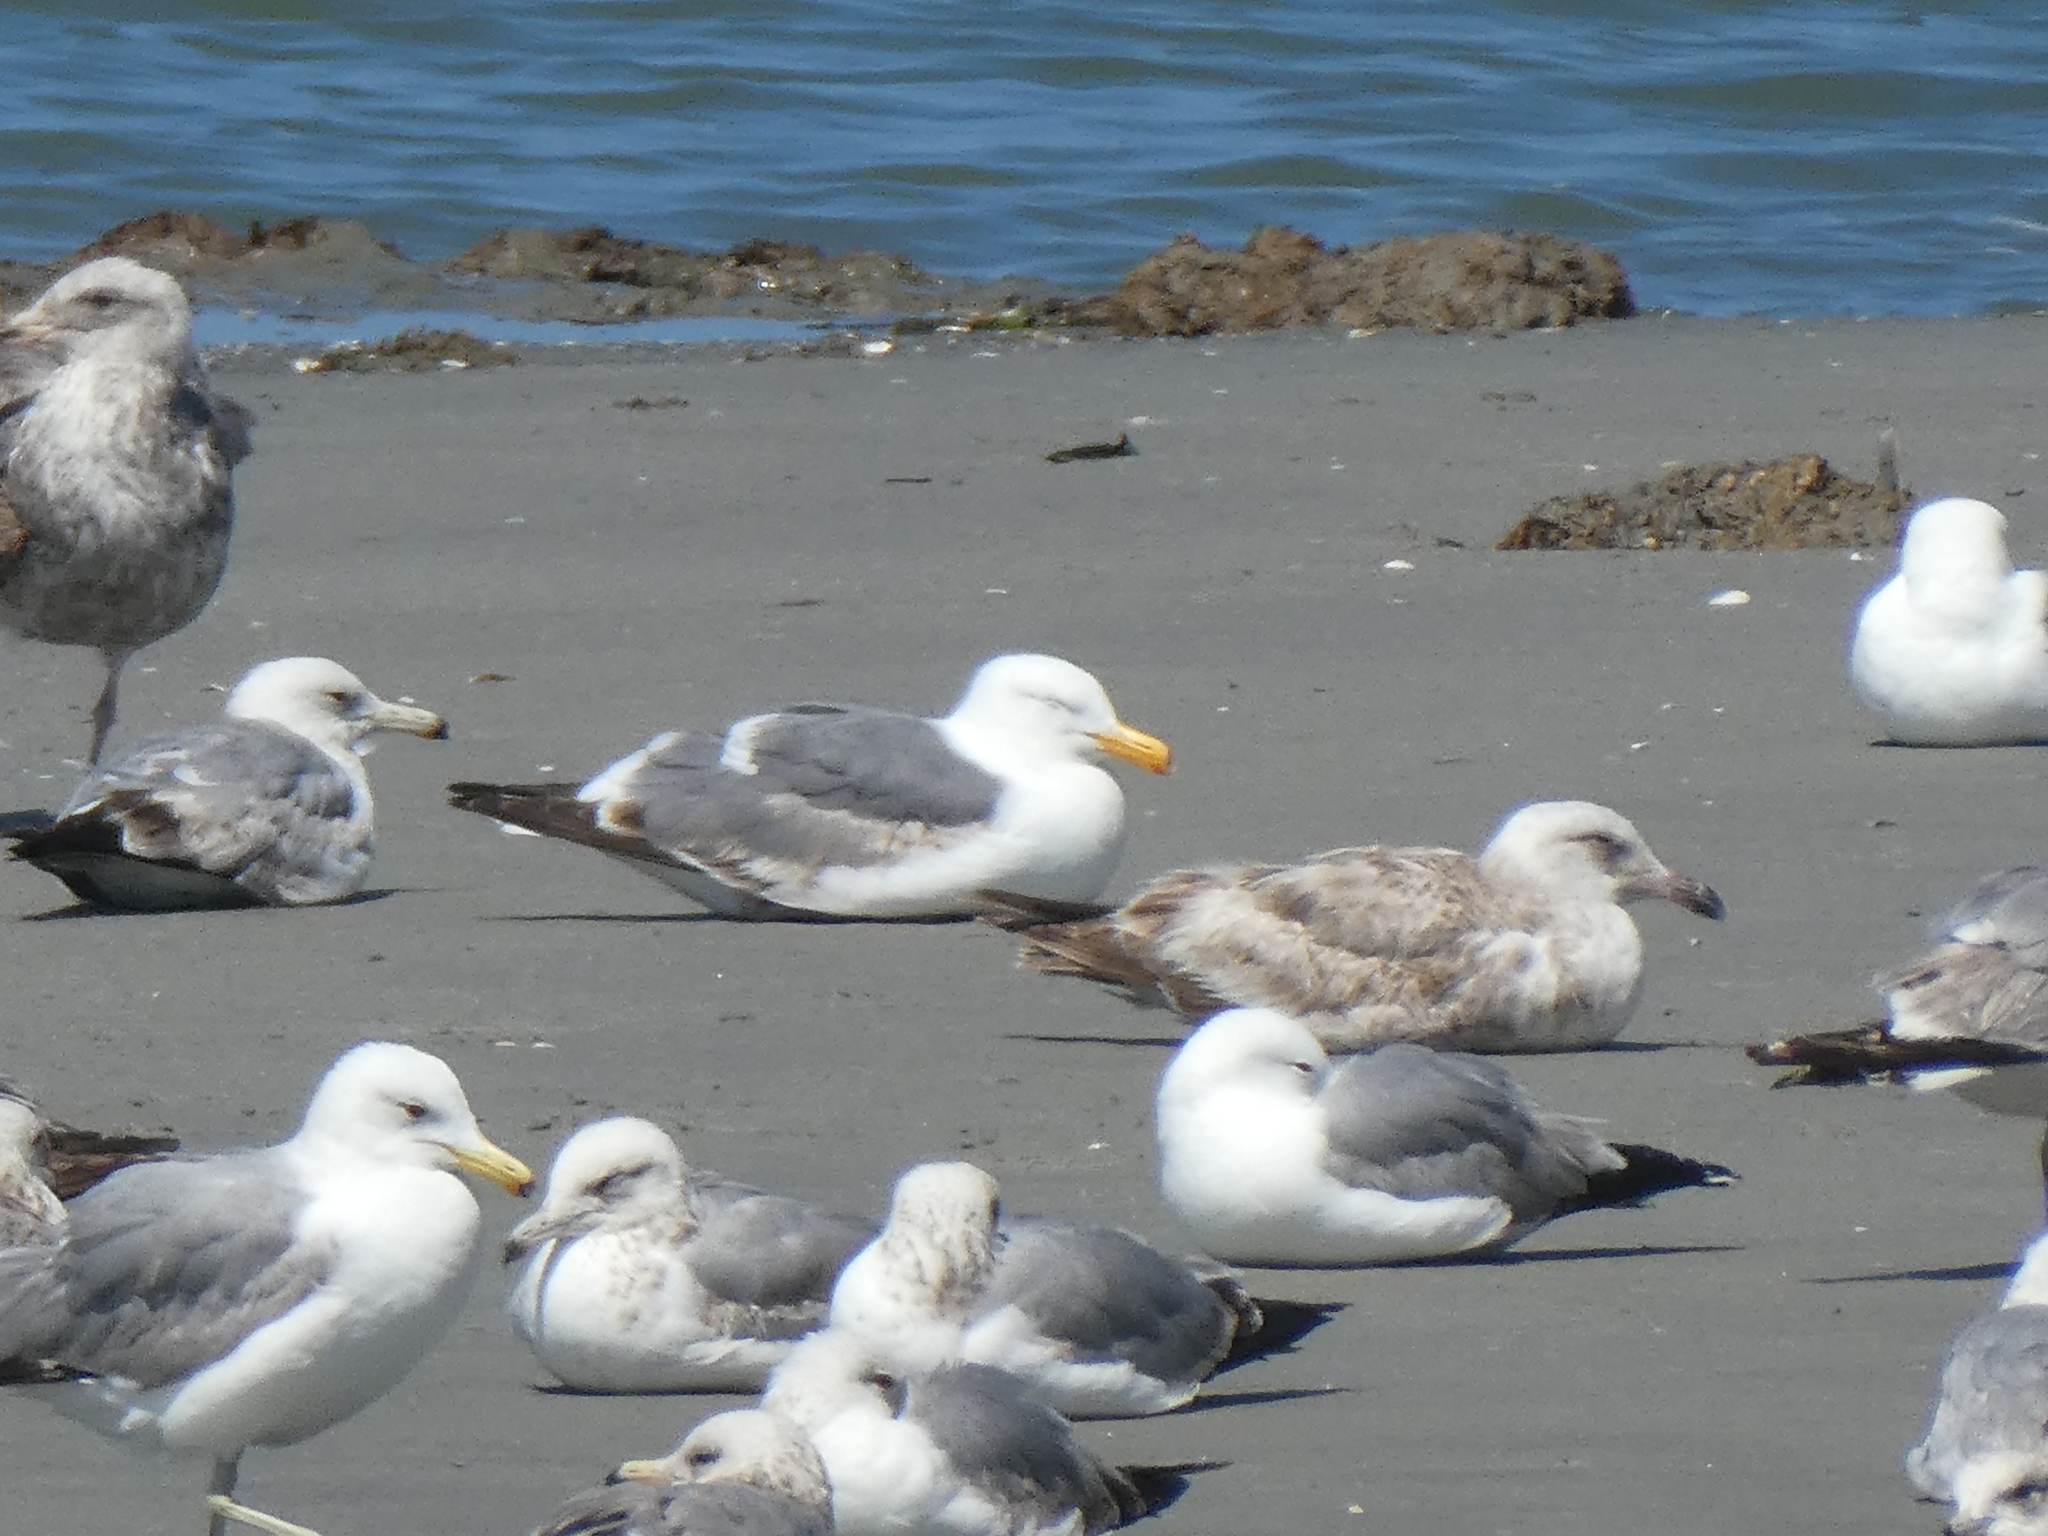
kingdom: Animalia
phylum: Chordata
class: Aves
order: Charadriiformes
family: Laridae
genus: Larus
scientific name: Larus californicus
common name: California gull
